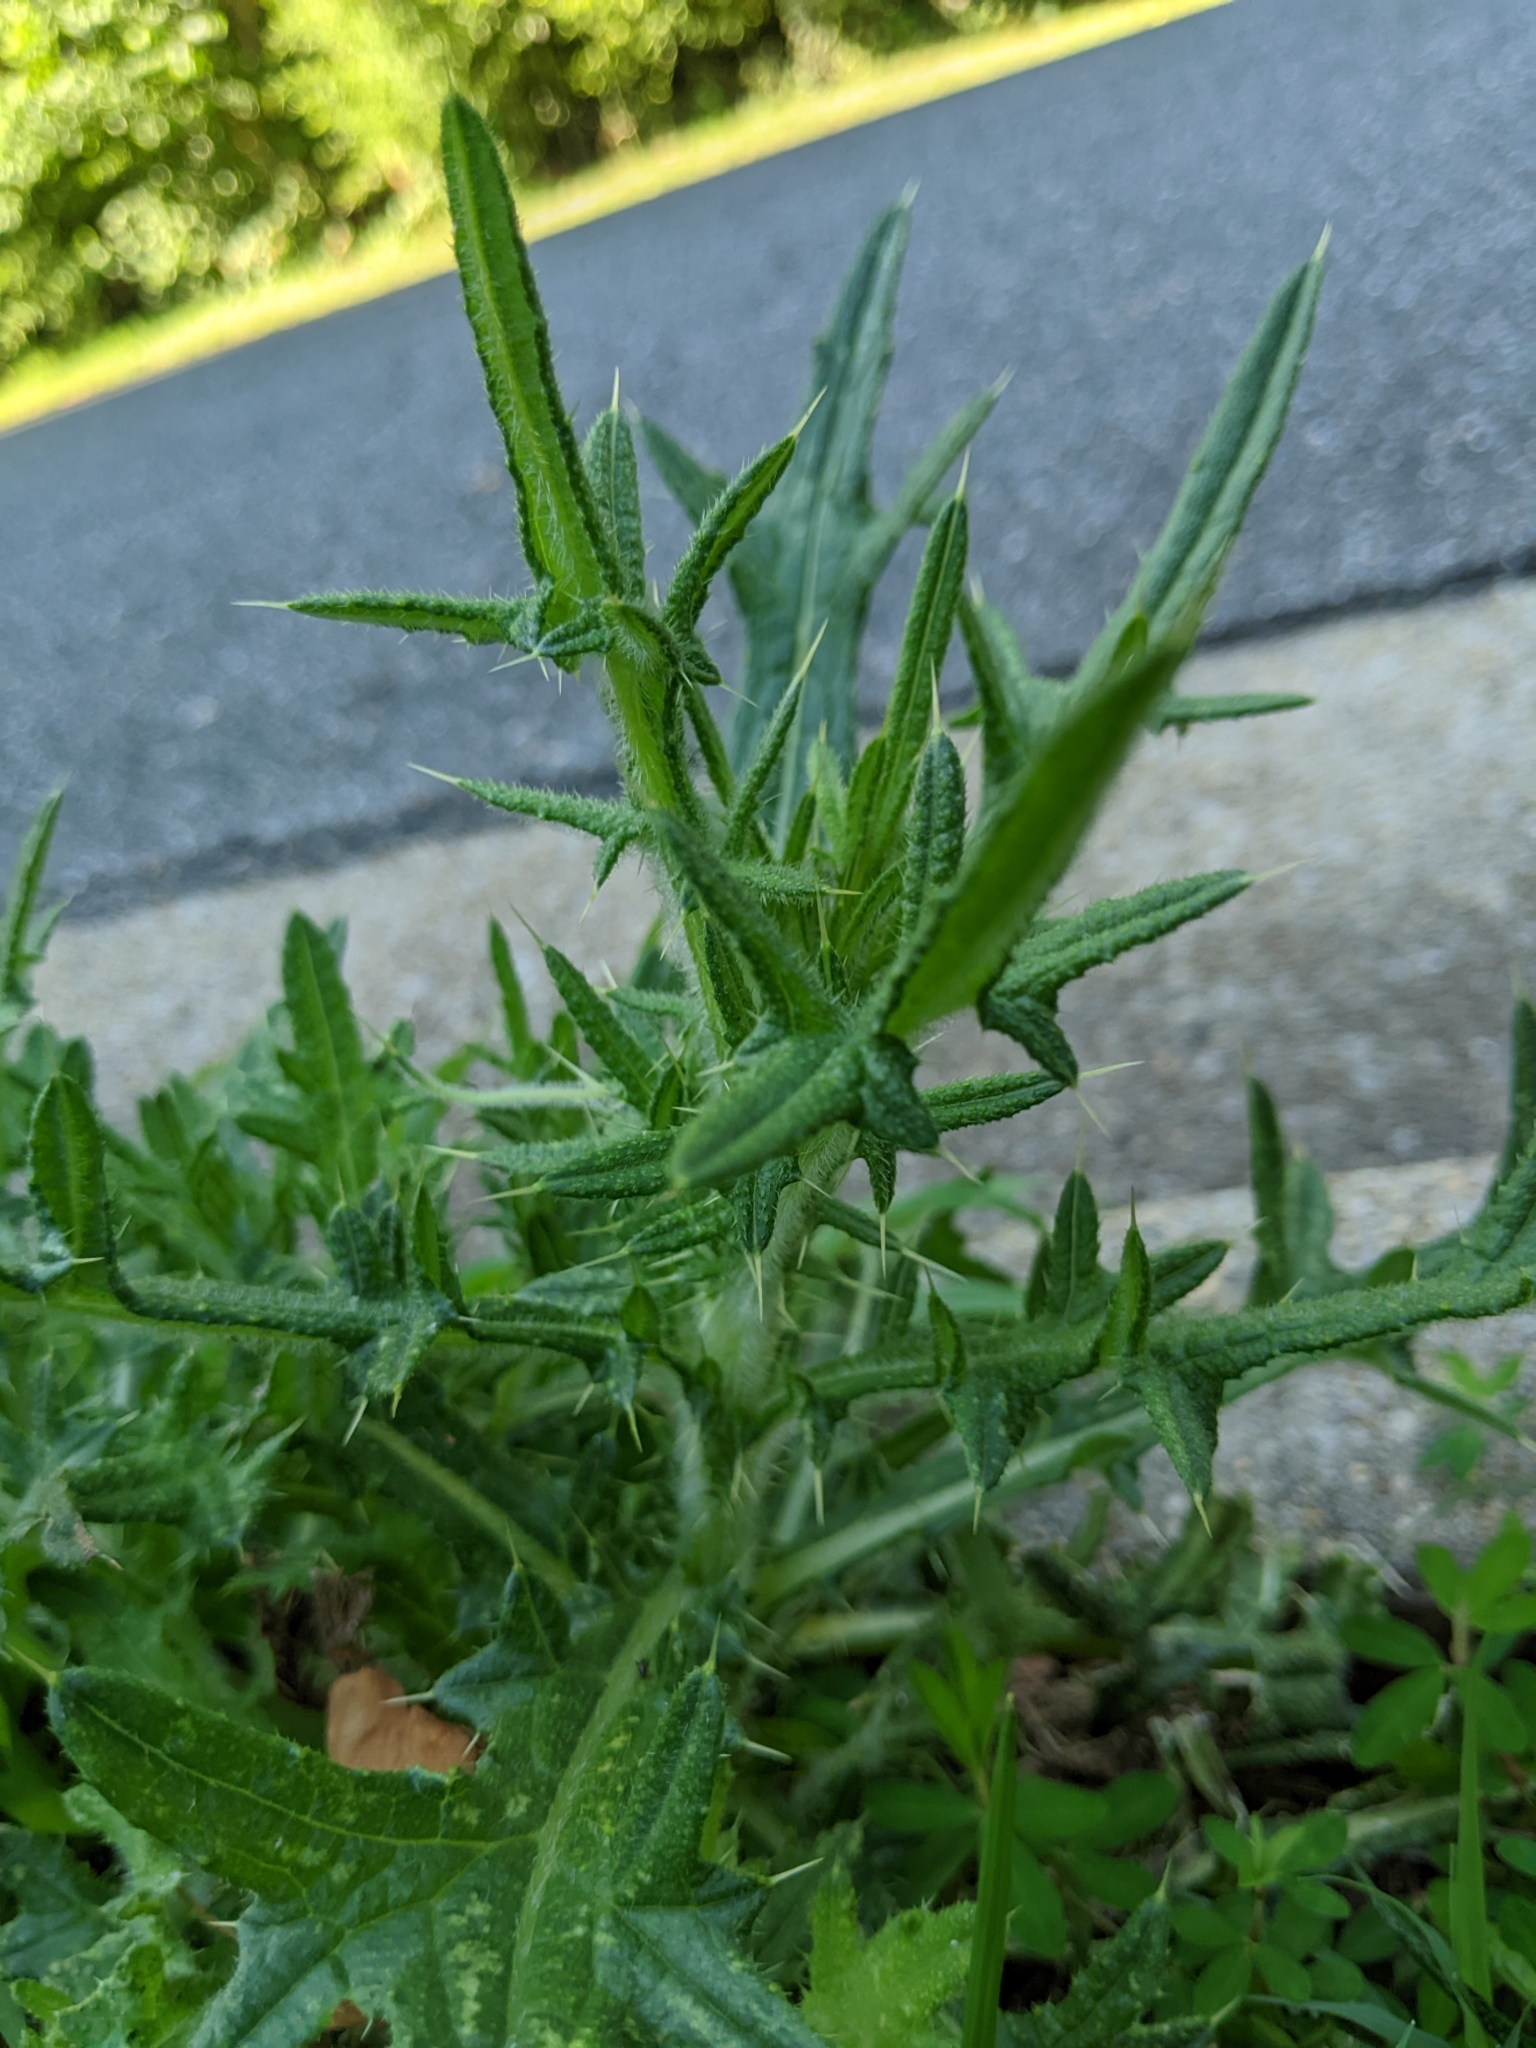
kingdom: Plantae
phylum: Tracheophyta
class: Magnoliopsida
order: Asterales
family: Asteraceae
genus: Cirsium
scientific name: Cirsium vulgare
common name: Bull thistle
